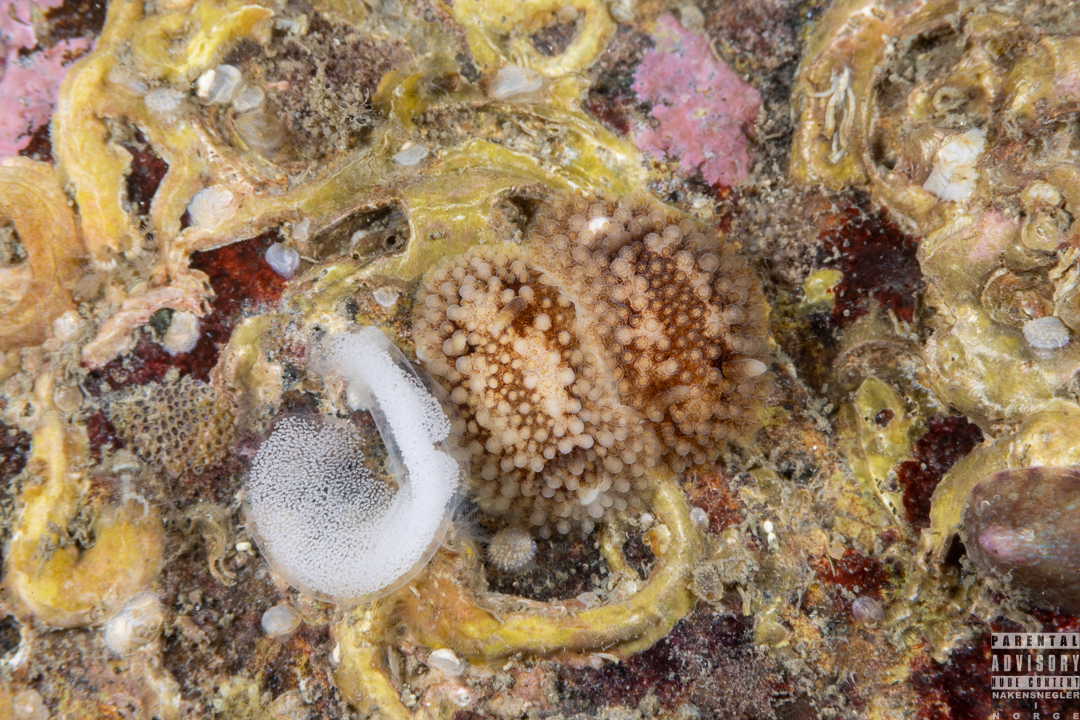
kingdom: Animalia
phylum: Mollusca
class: Gastropoda
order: Nudibranchia
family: Onchidorididae
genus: Onchidoris
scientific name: Onchidoris bilamellata
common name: Barnacle-eating onchidoris
